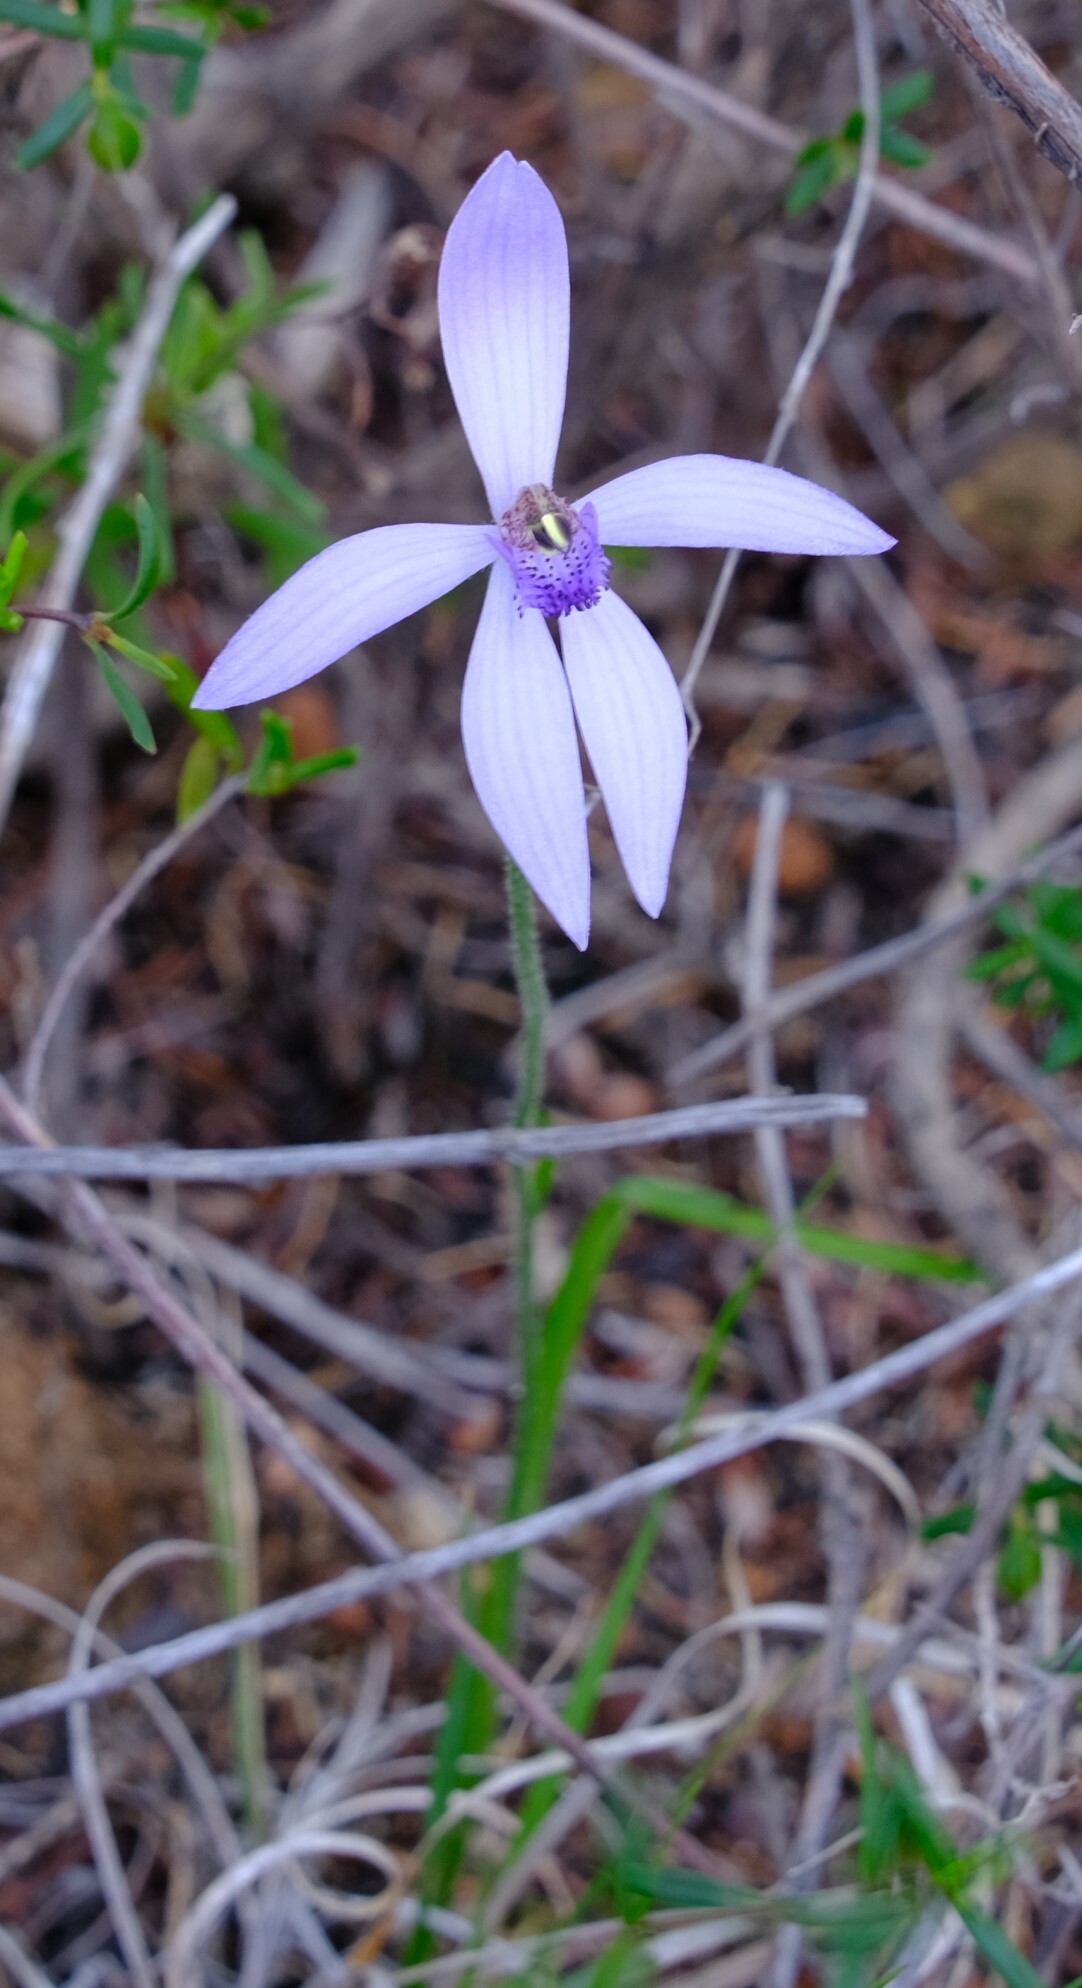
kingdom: Plantae
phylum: Tracheophyta
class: Liliopsida
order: Asparagales
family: Orchidaceae
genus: Pheladenia
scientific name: Pheladenia deformis
